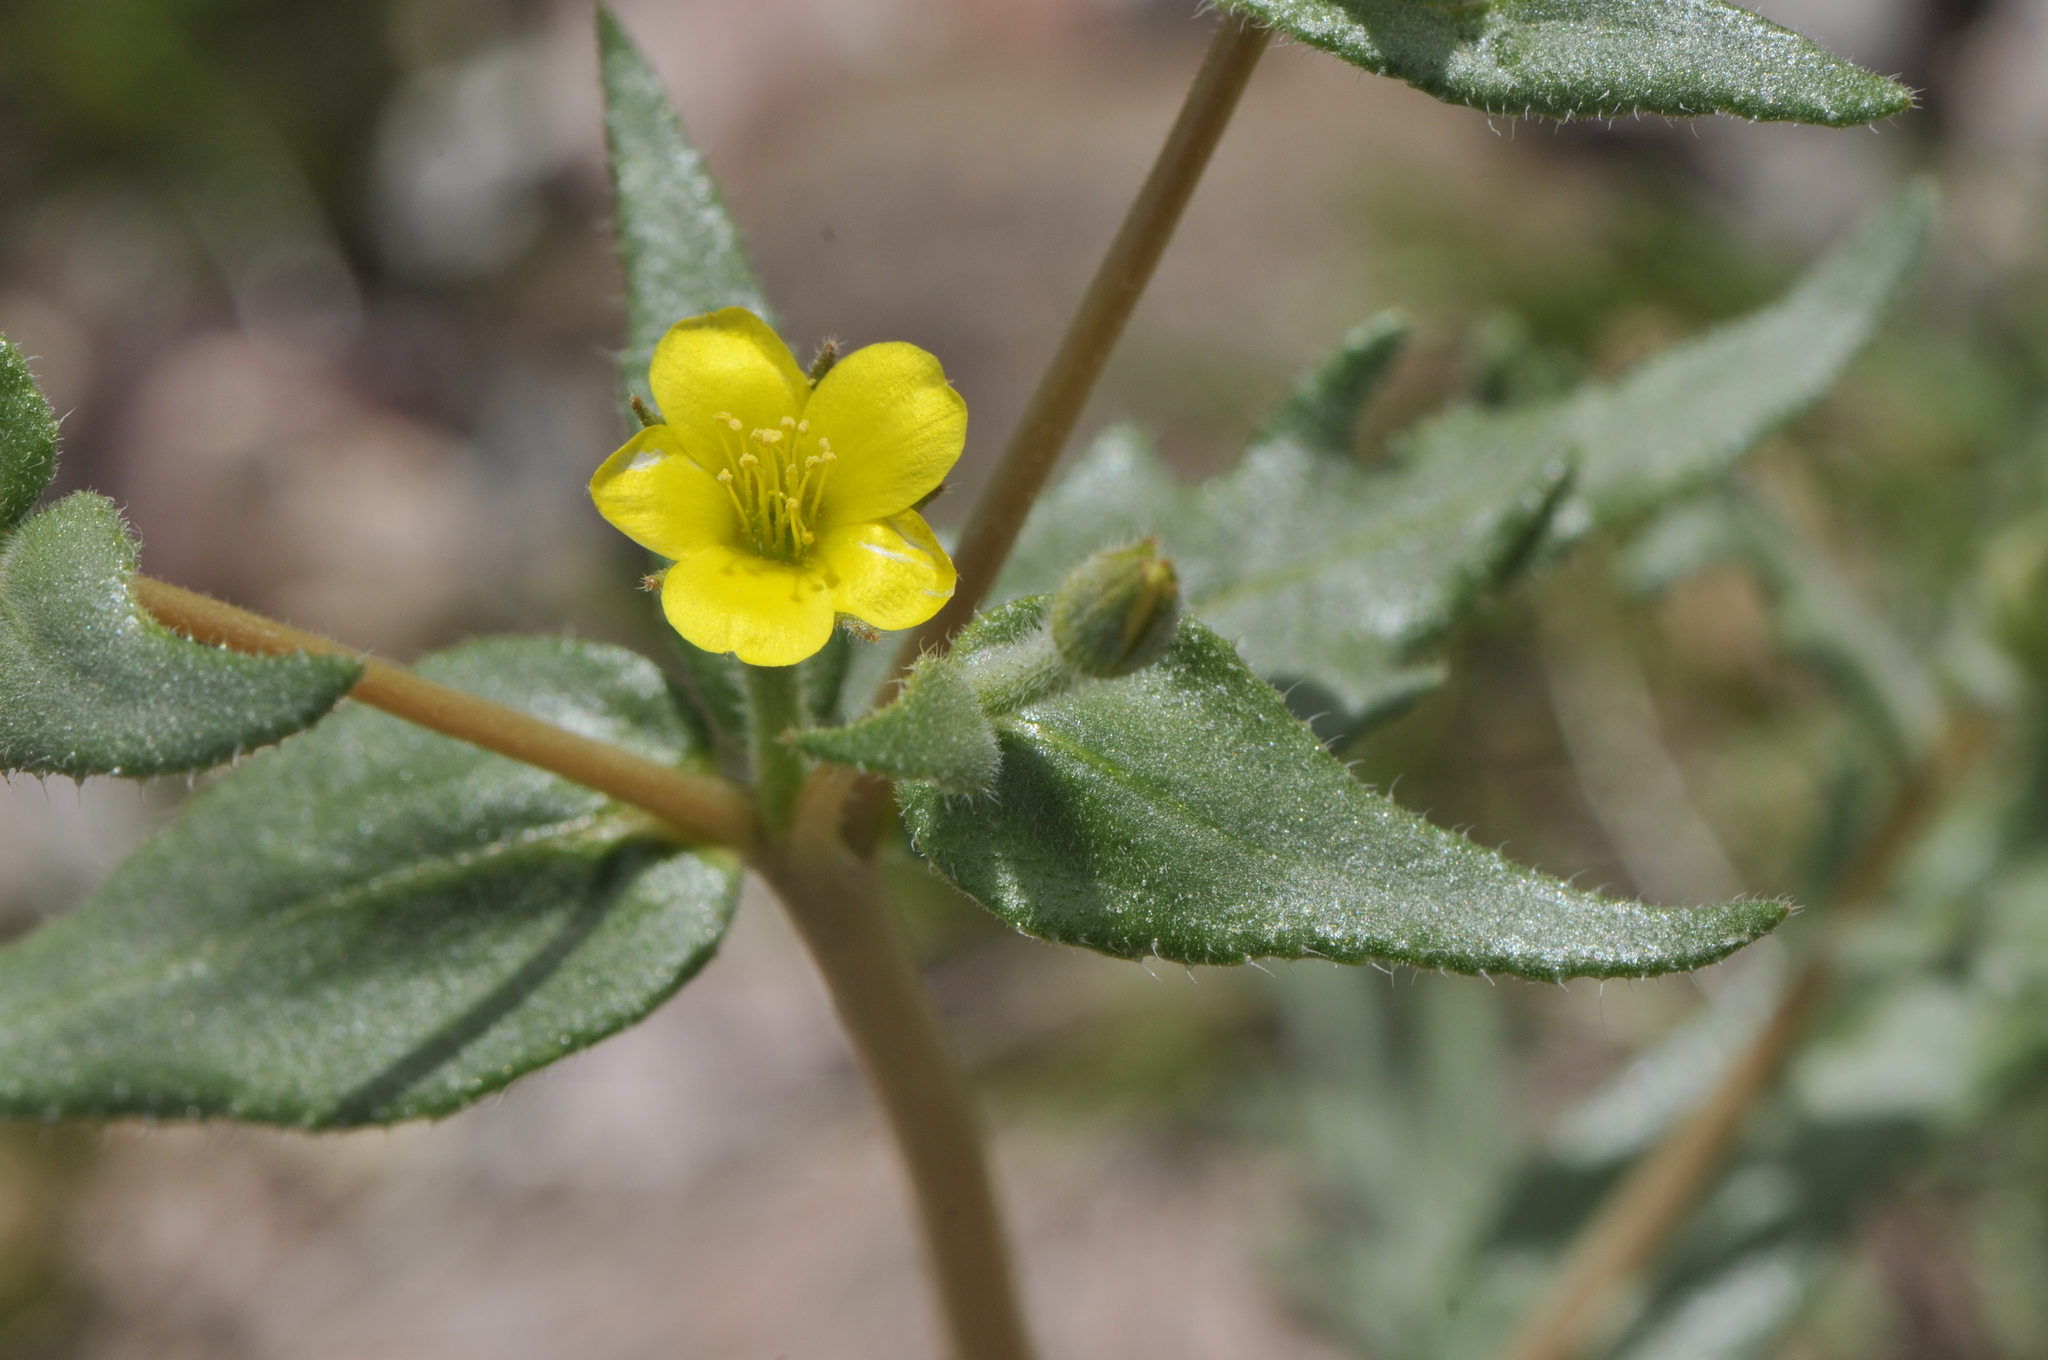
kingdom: Plantae
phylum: Tracheophyta
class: Magnoliopsida
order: Cornales
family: Loasaceae
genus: Mentzelia
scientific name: Mentzelia albicaulis
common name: White-stem blazingstar
